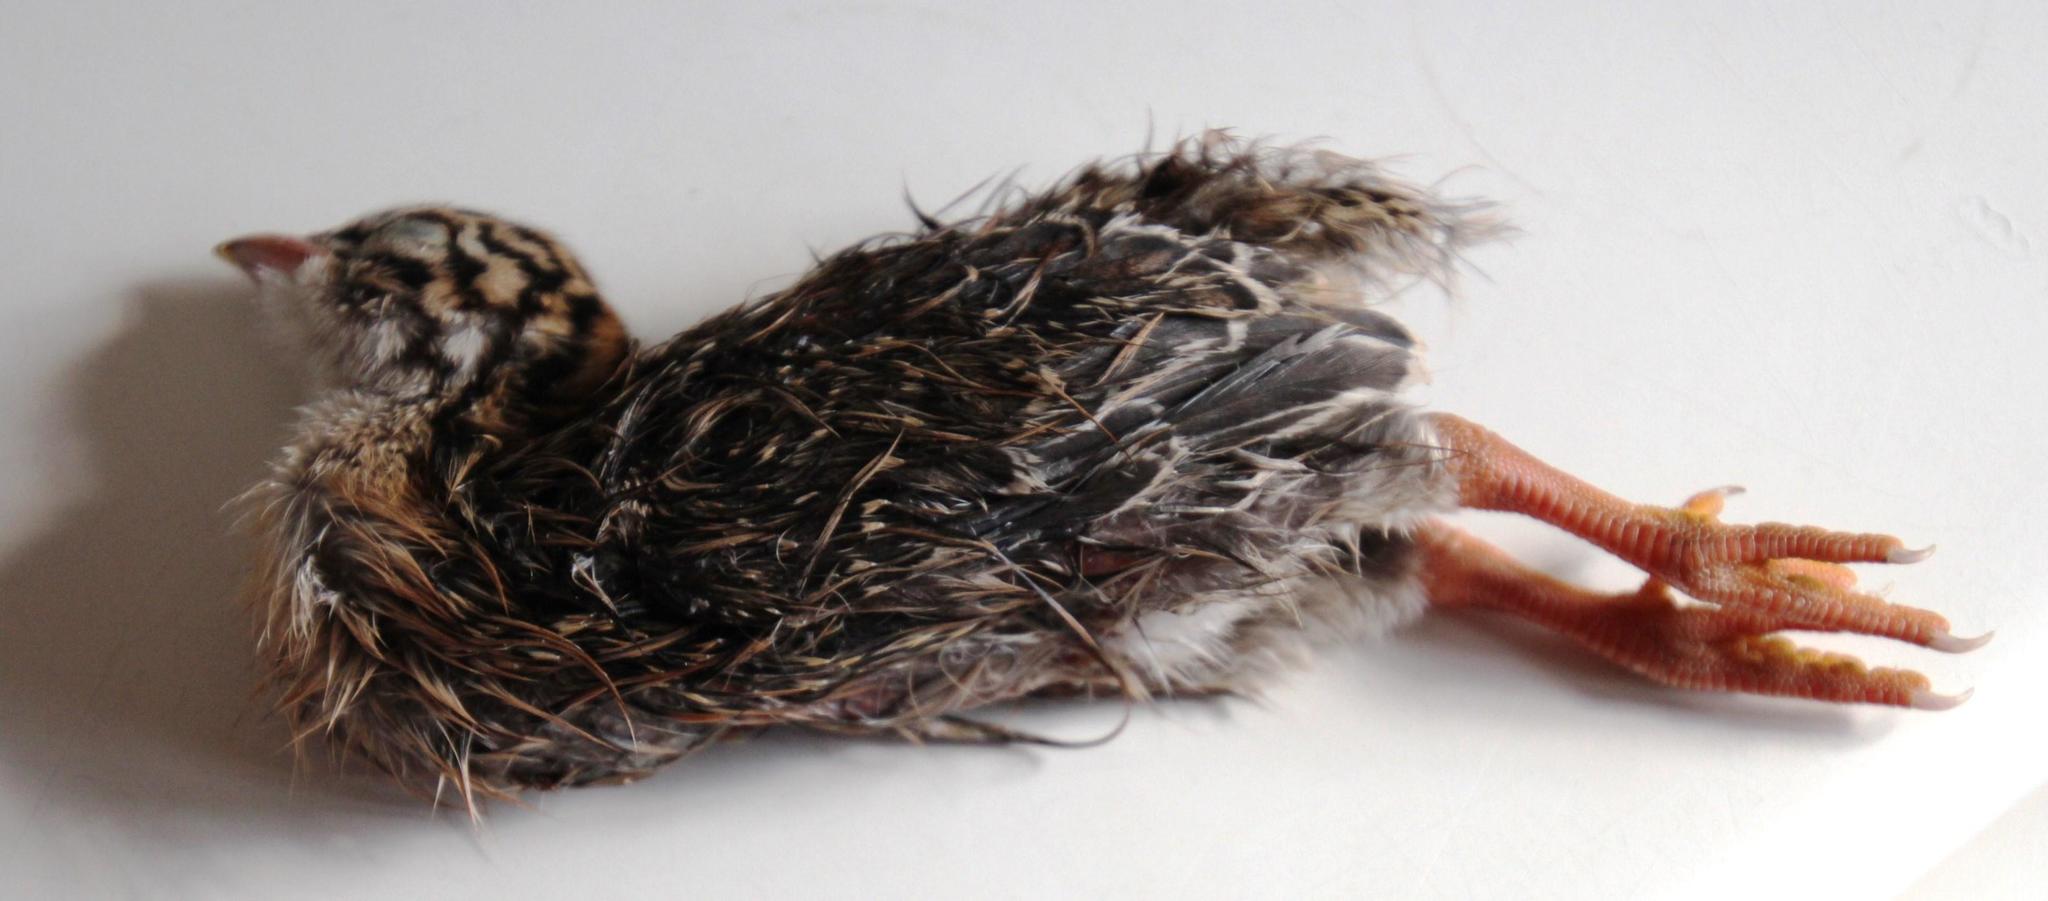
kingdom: Animalia
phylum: Chordata
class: Aves
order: Galliformes
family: Numididae
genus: Numida
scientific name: Numida meleagris
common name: Helmeted guineafowl
